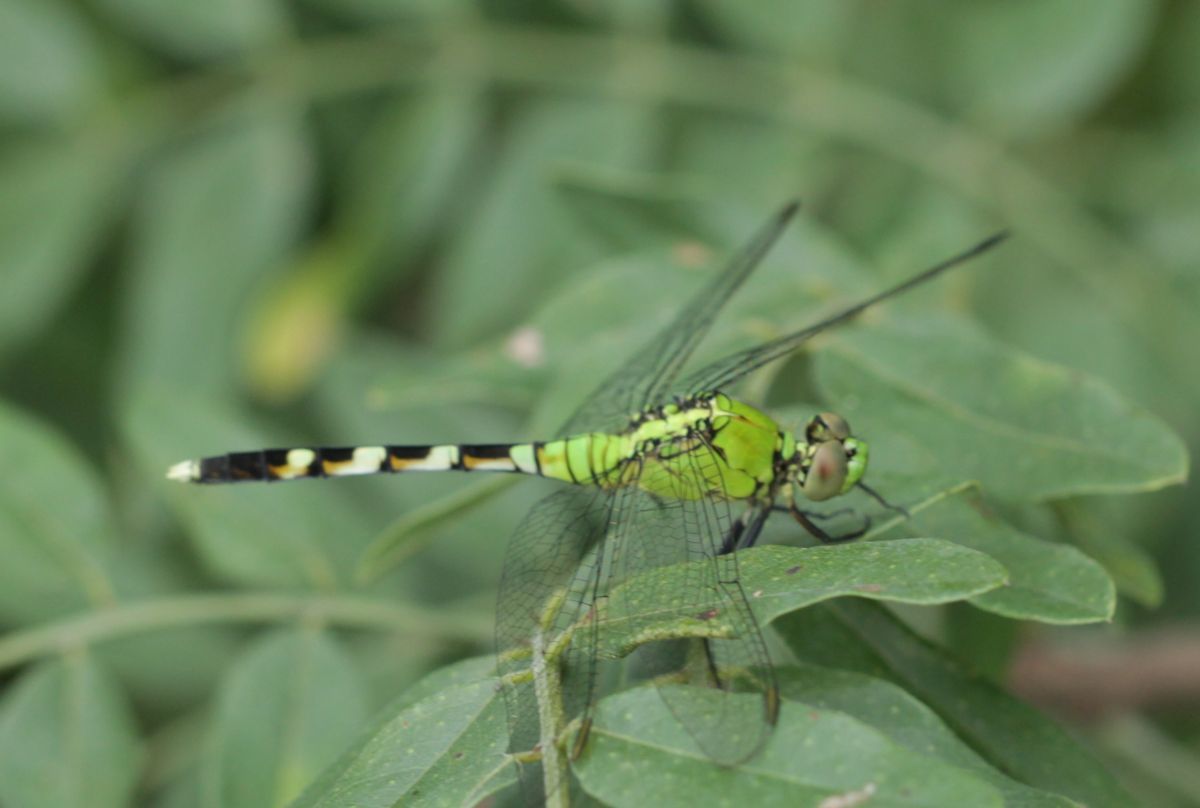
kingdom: Animalia
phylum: Arthropoda
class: Insecta
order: Odonata
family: Libellulidae
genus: Erythemis
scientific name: Erythemis simplicicollis
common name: Eastern pondhawk
